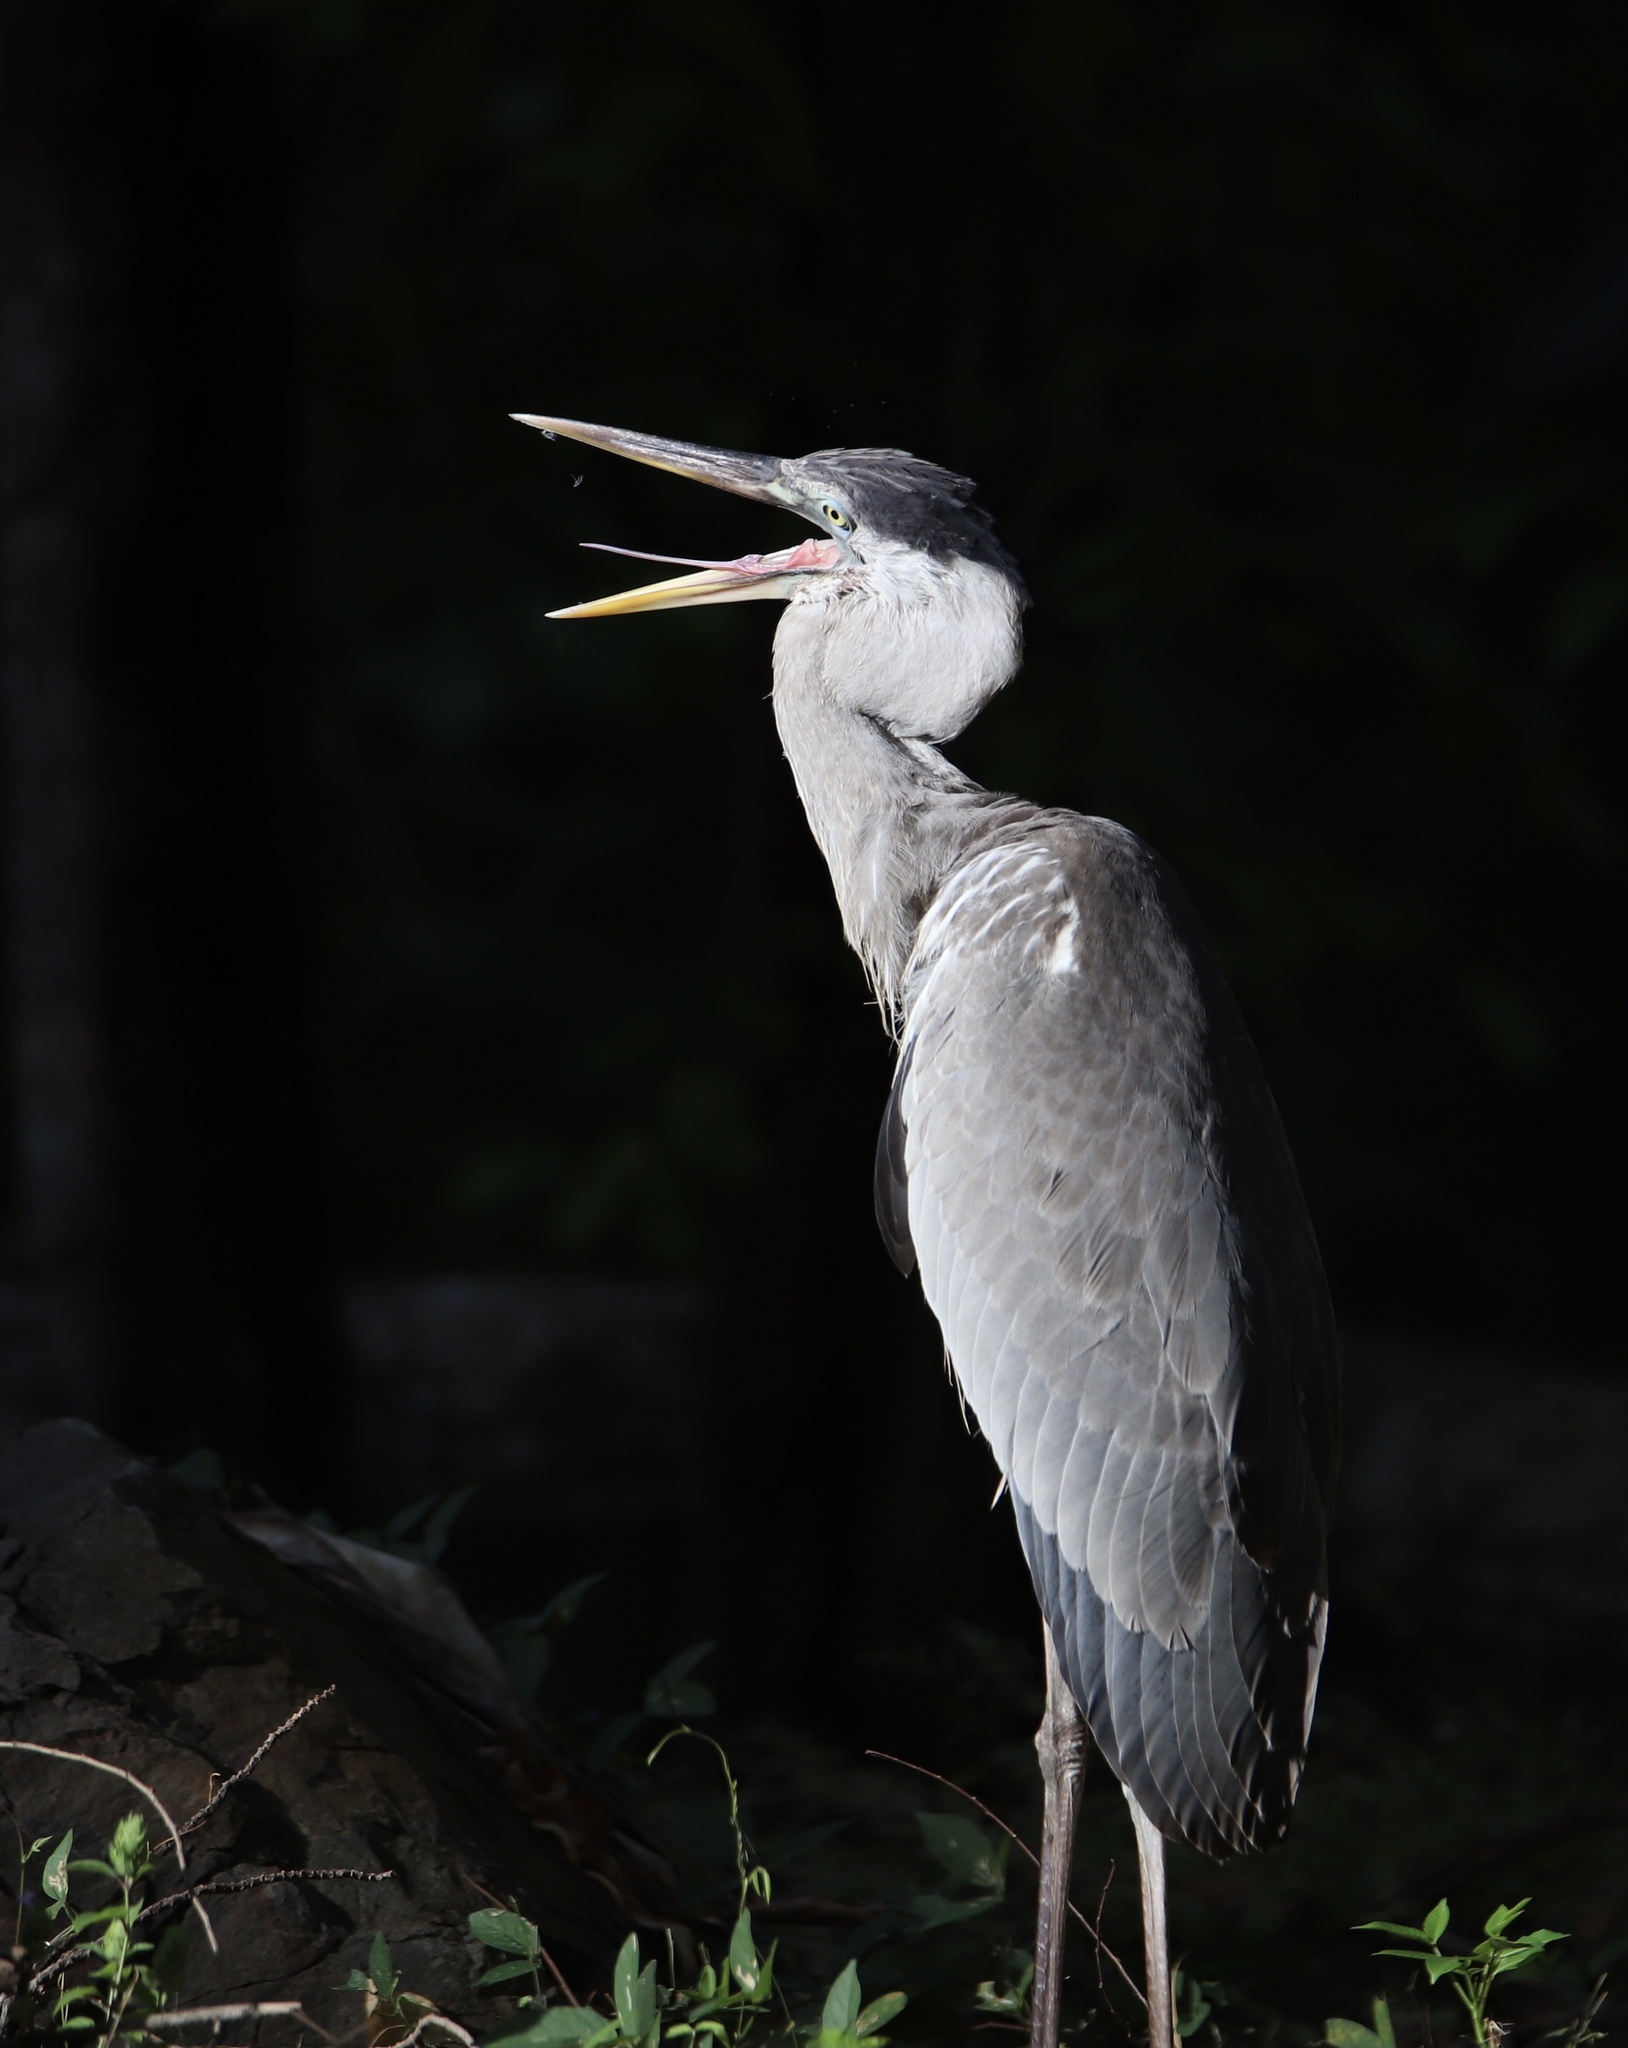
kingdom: Animalia
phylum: Chordata
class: Aves
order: Pelecaniformes
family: Ardeidae
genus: Ardea
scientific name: Ardea cocoi
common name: Cocoi heron
